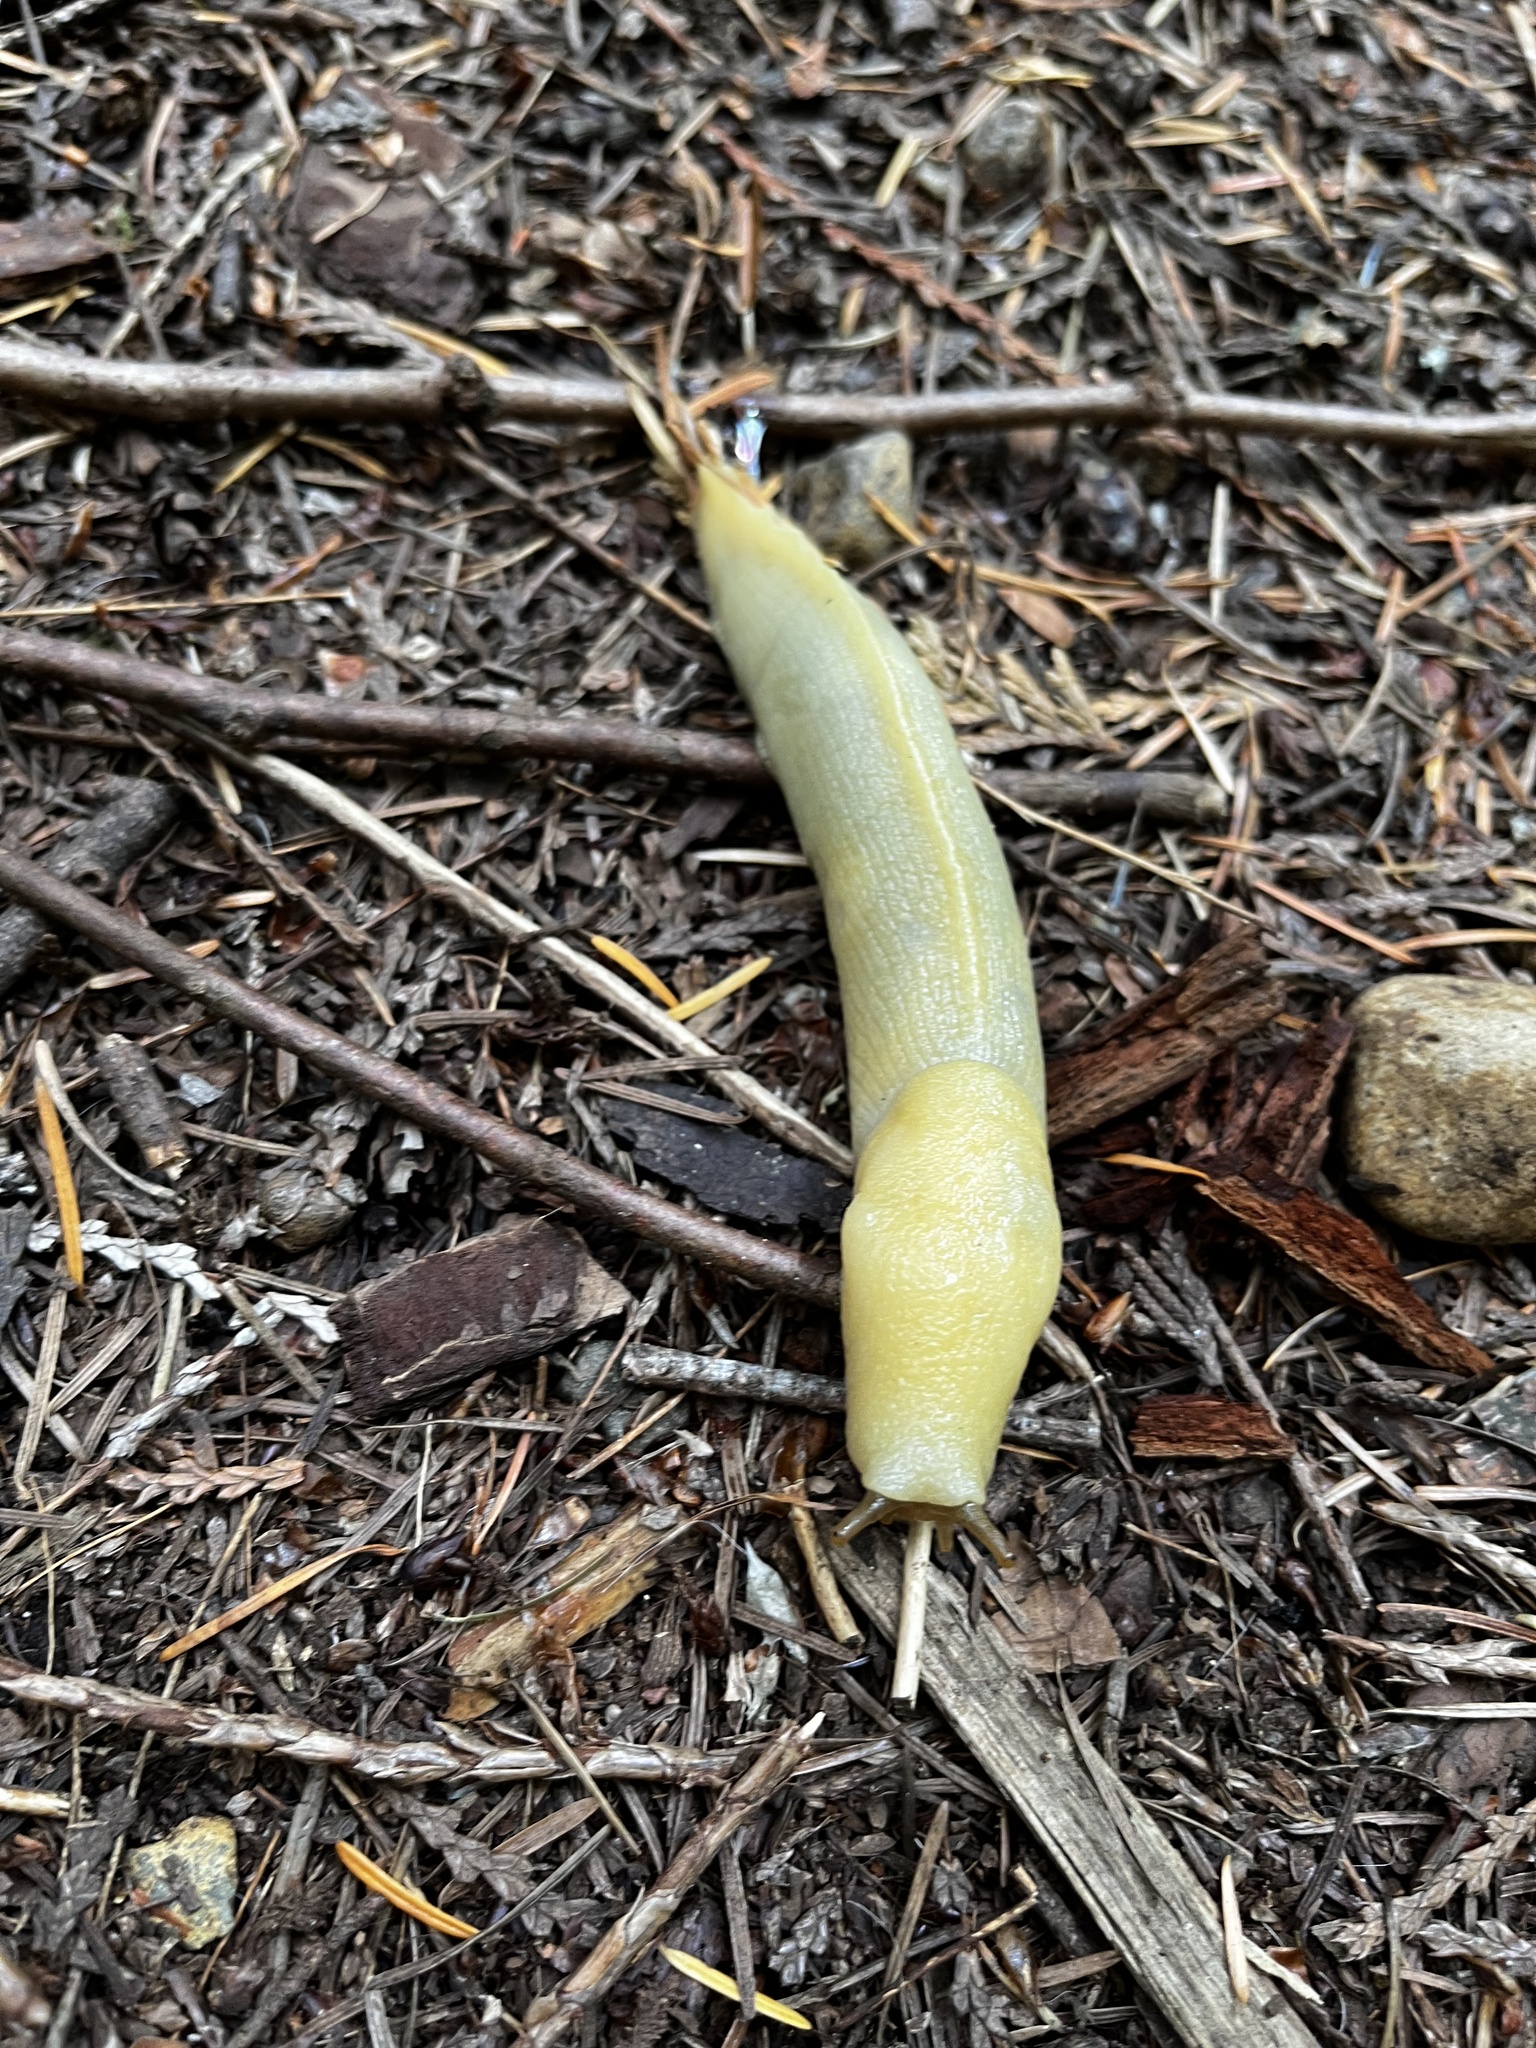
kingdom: Animalia
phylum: Mollusca
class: Gastropoda
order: Stylommatophora
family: Ariolimacidae
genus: Ariolimax
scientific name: Ariolimax columbianus
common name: Pacific banana slug
